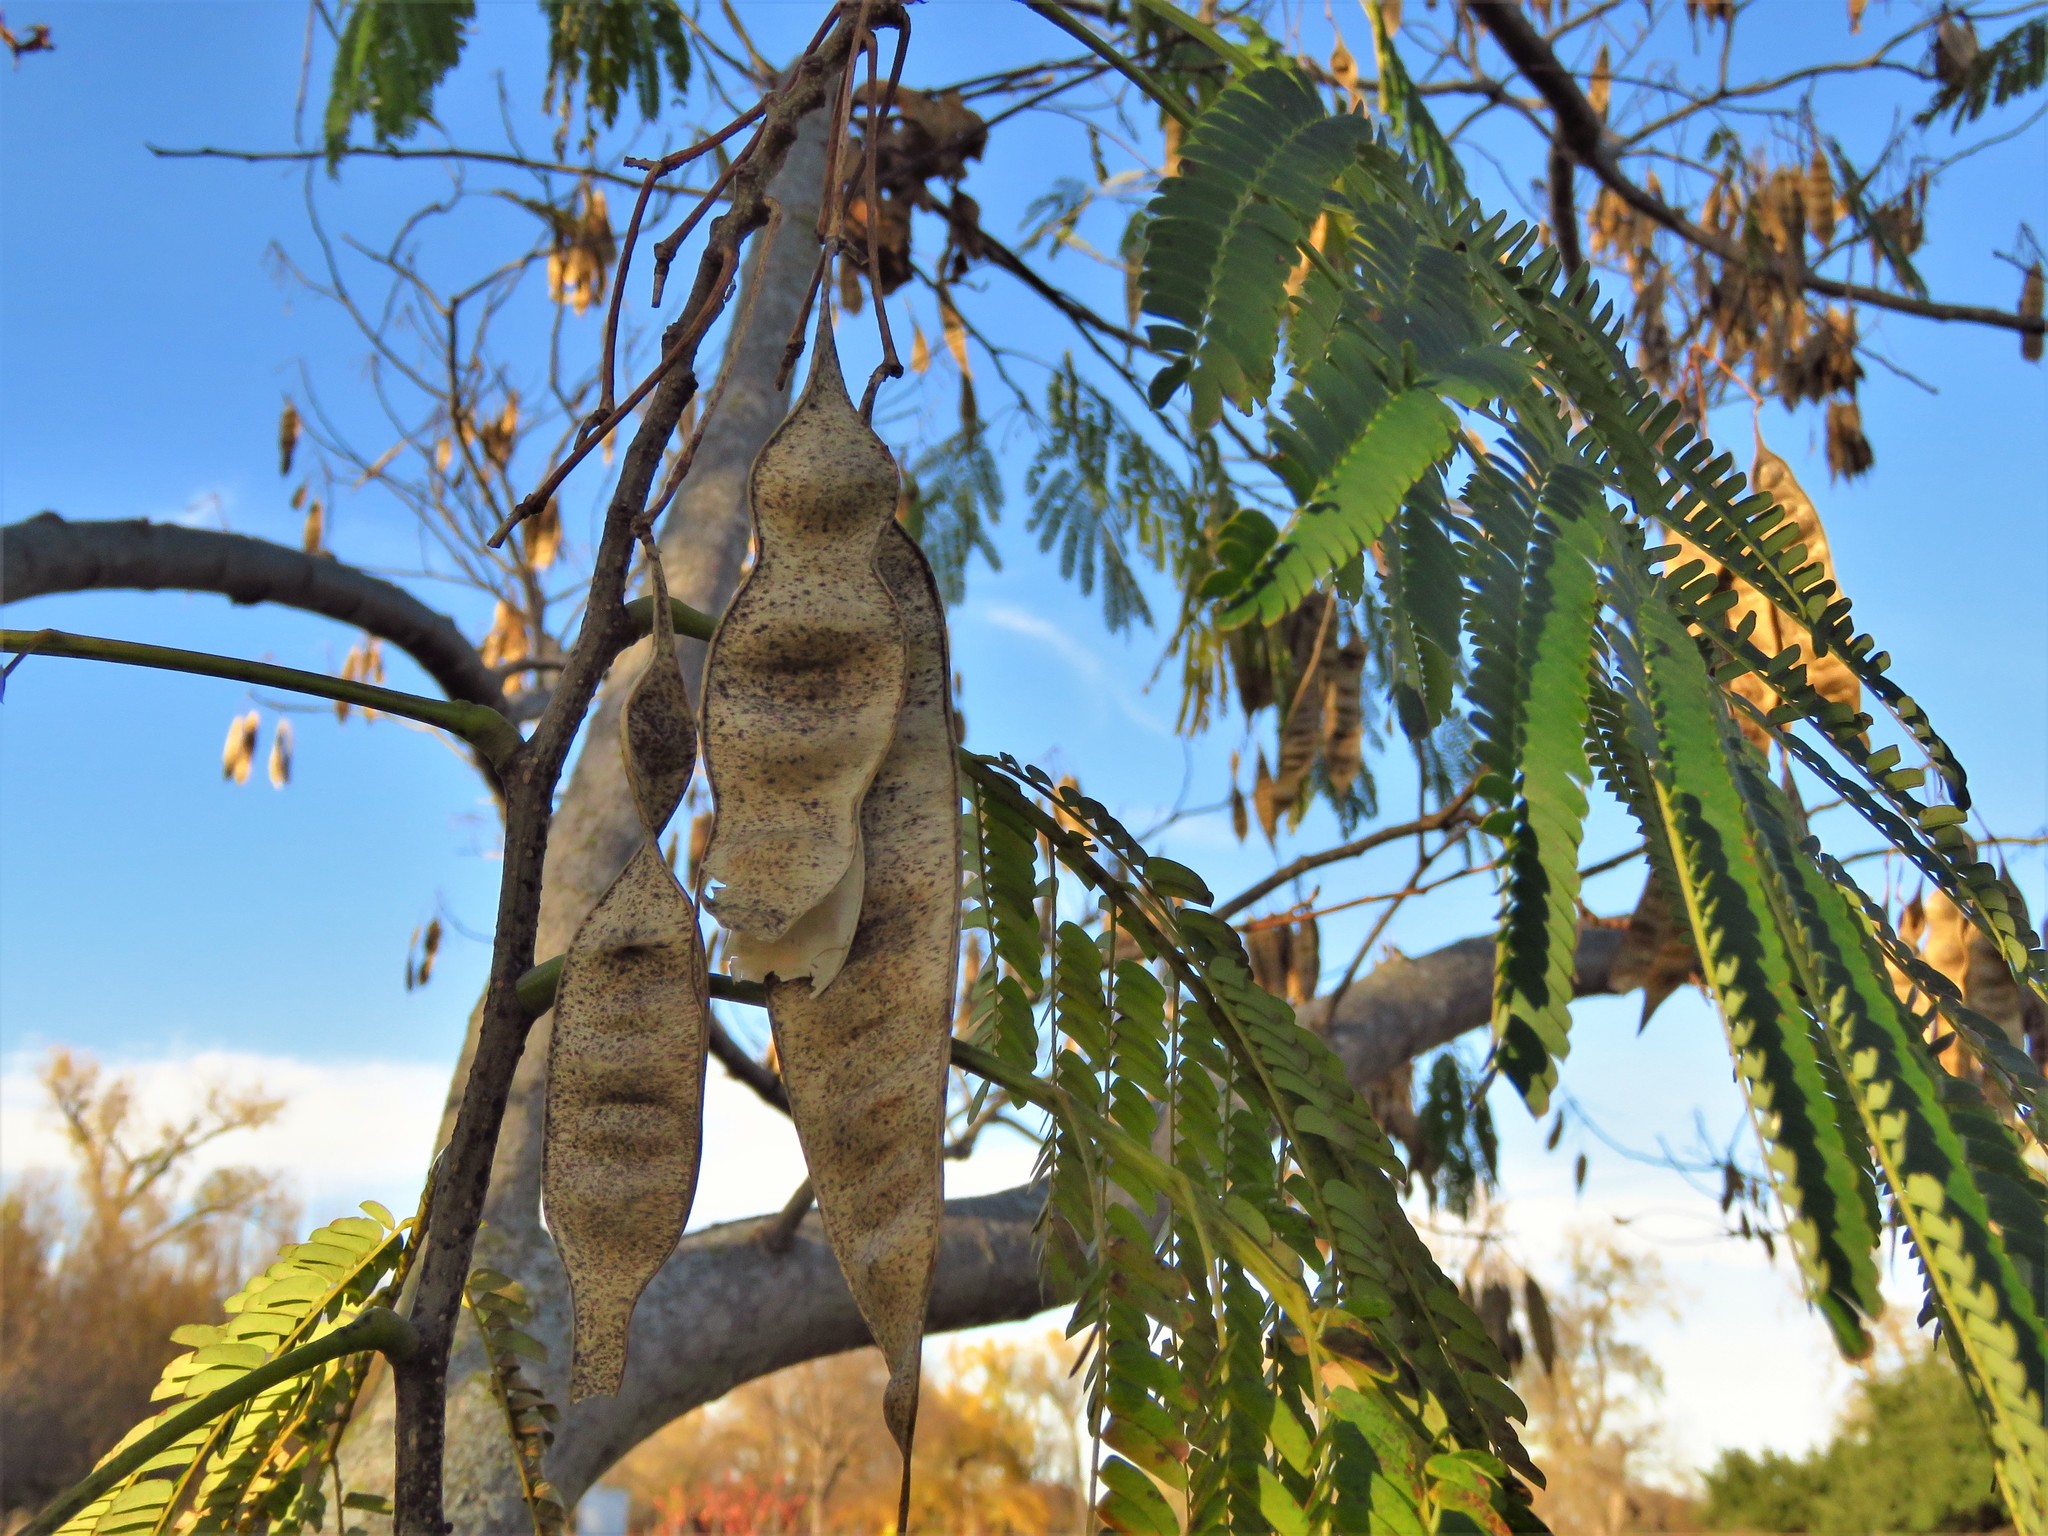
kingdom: Plantae
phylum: Tracheophyta
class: Magnoliopsida
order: Fabales
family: Fabaceae
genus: Albizia
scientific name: Albizia julibrissin
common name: Silktree
